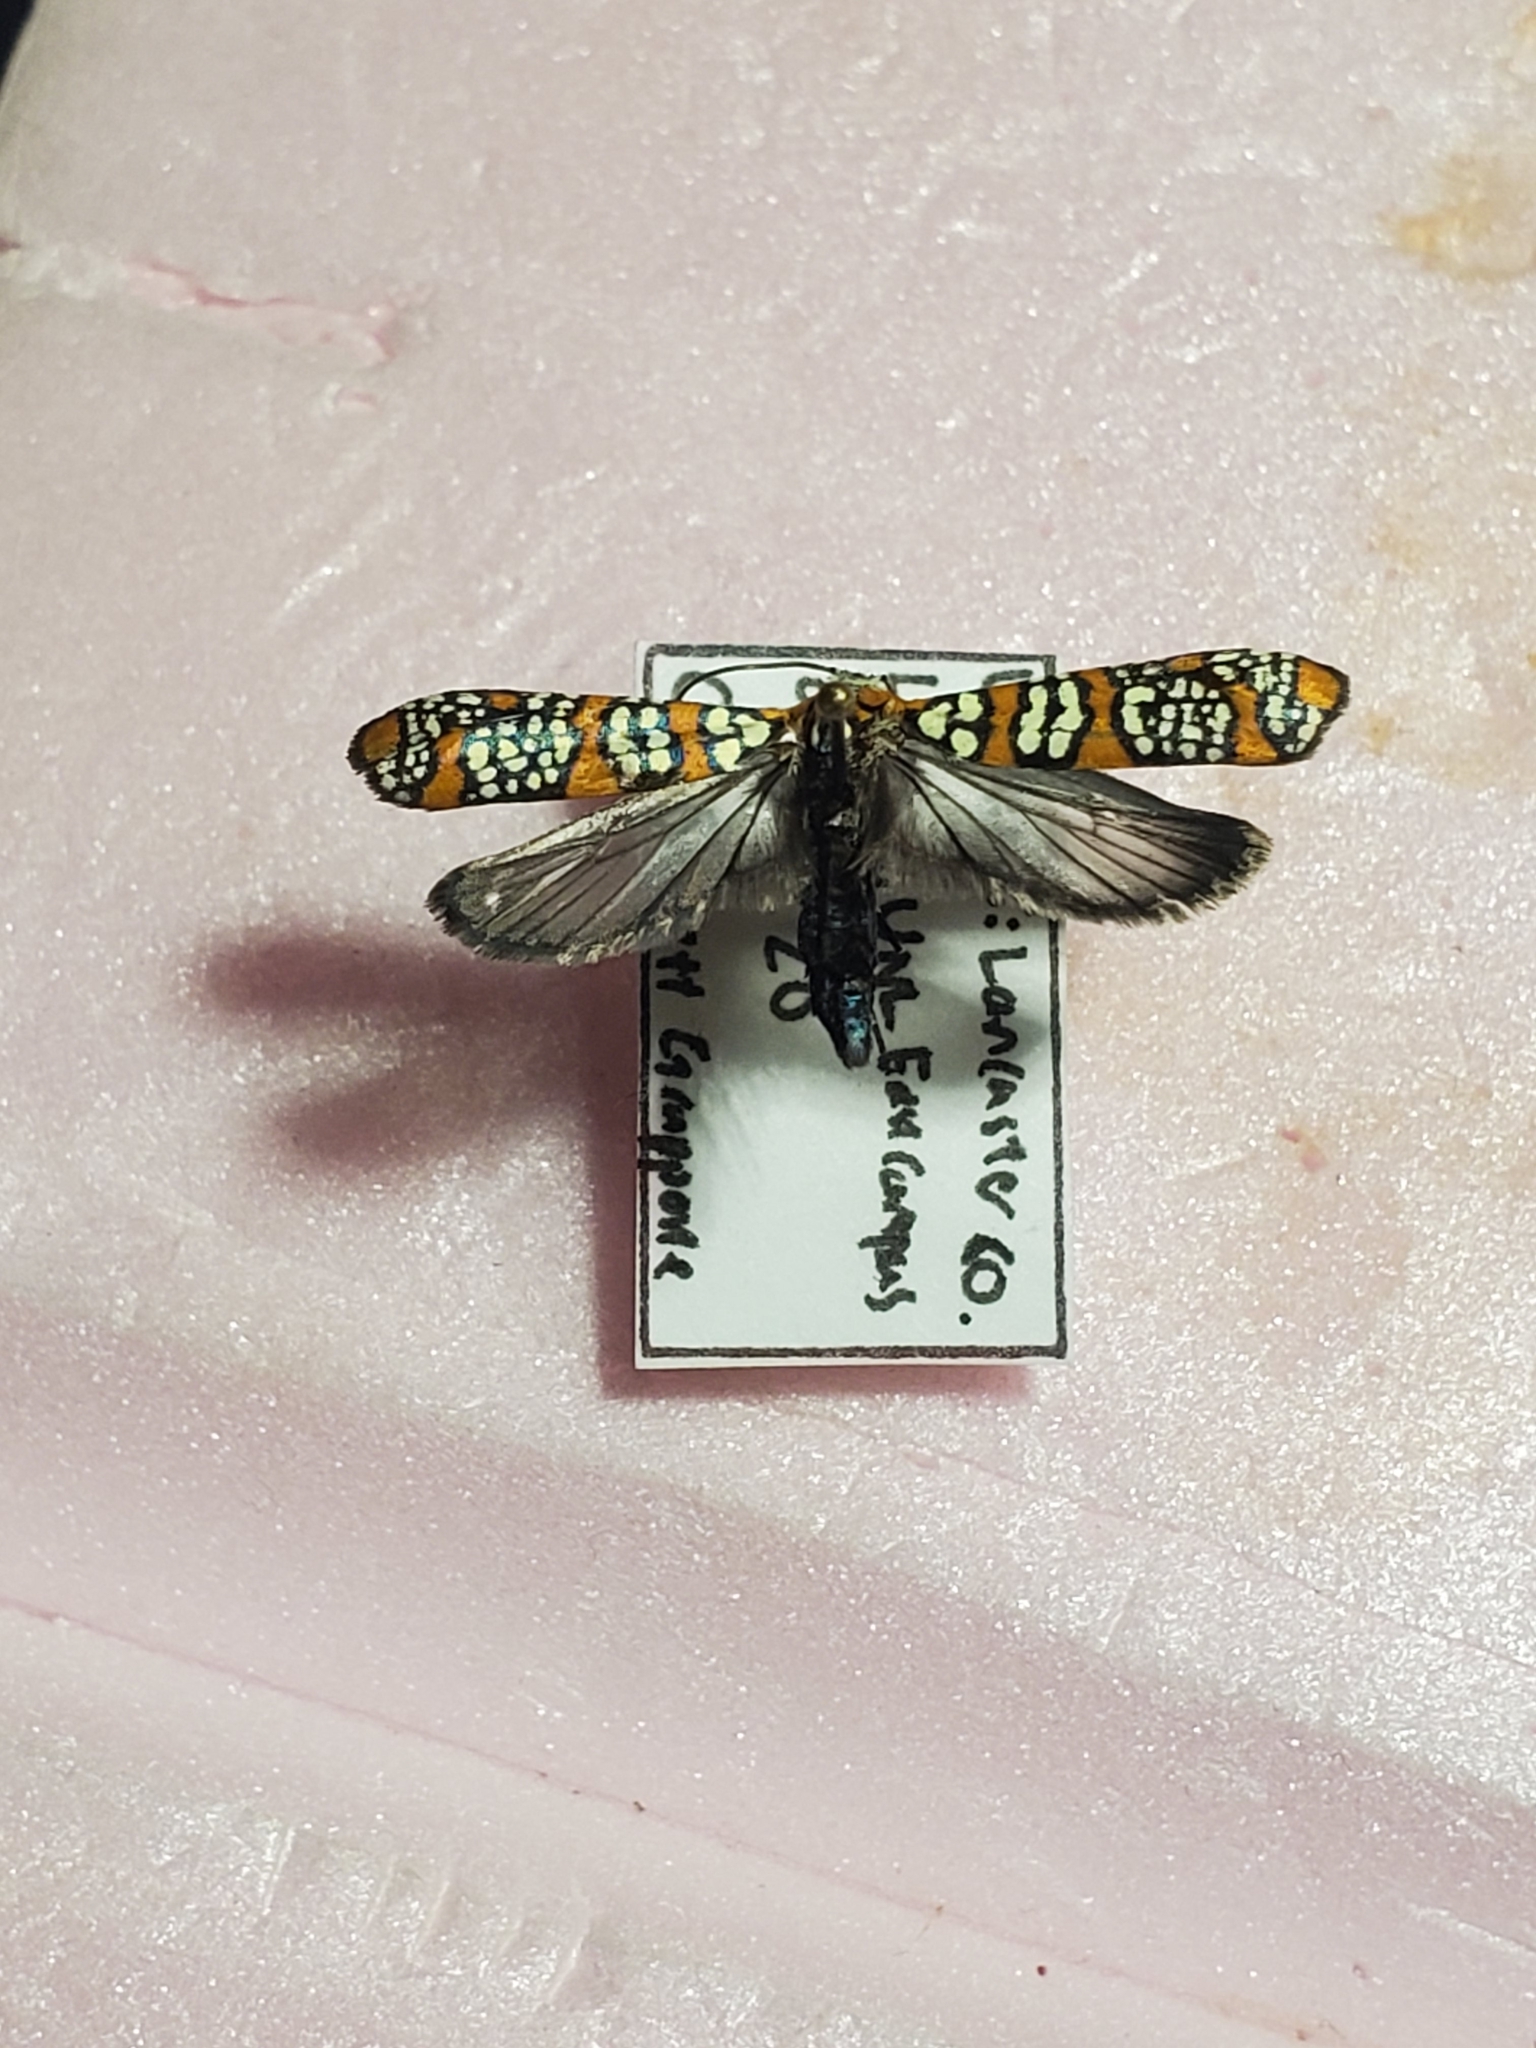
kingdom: Animalia
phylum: Arthropoda
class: Insecta
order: Lepidoptera
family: Attevidae
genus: Atteva
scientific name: Atteva punctella
